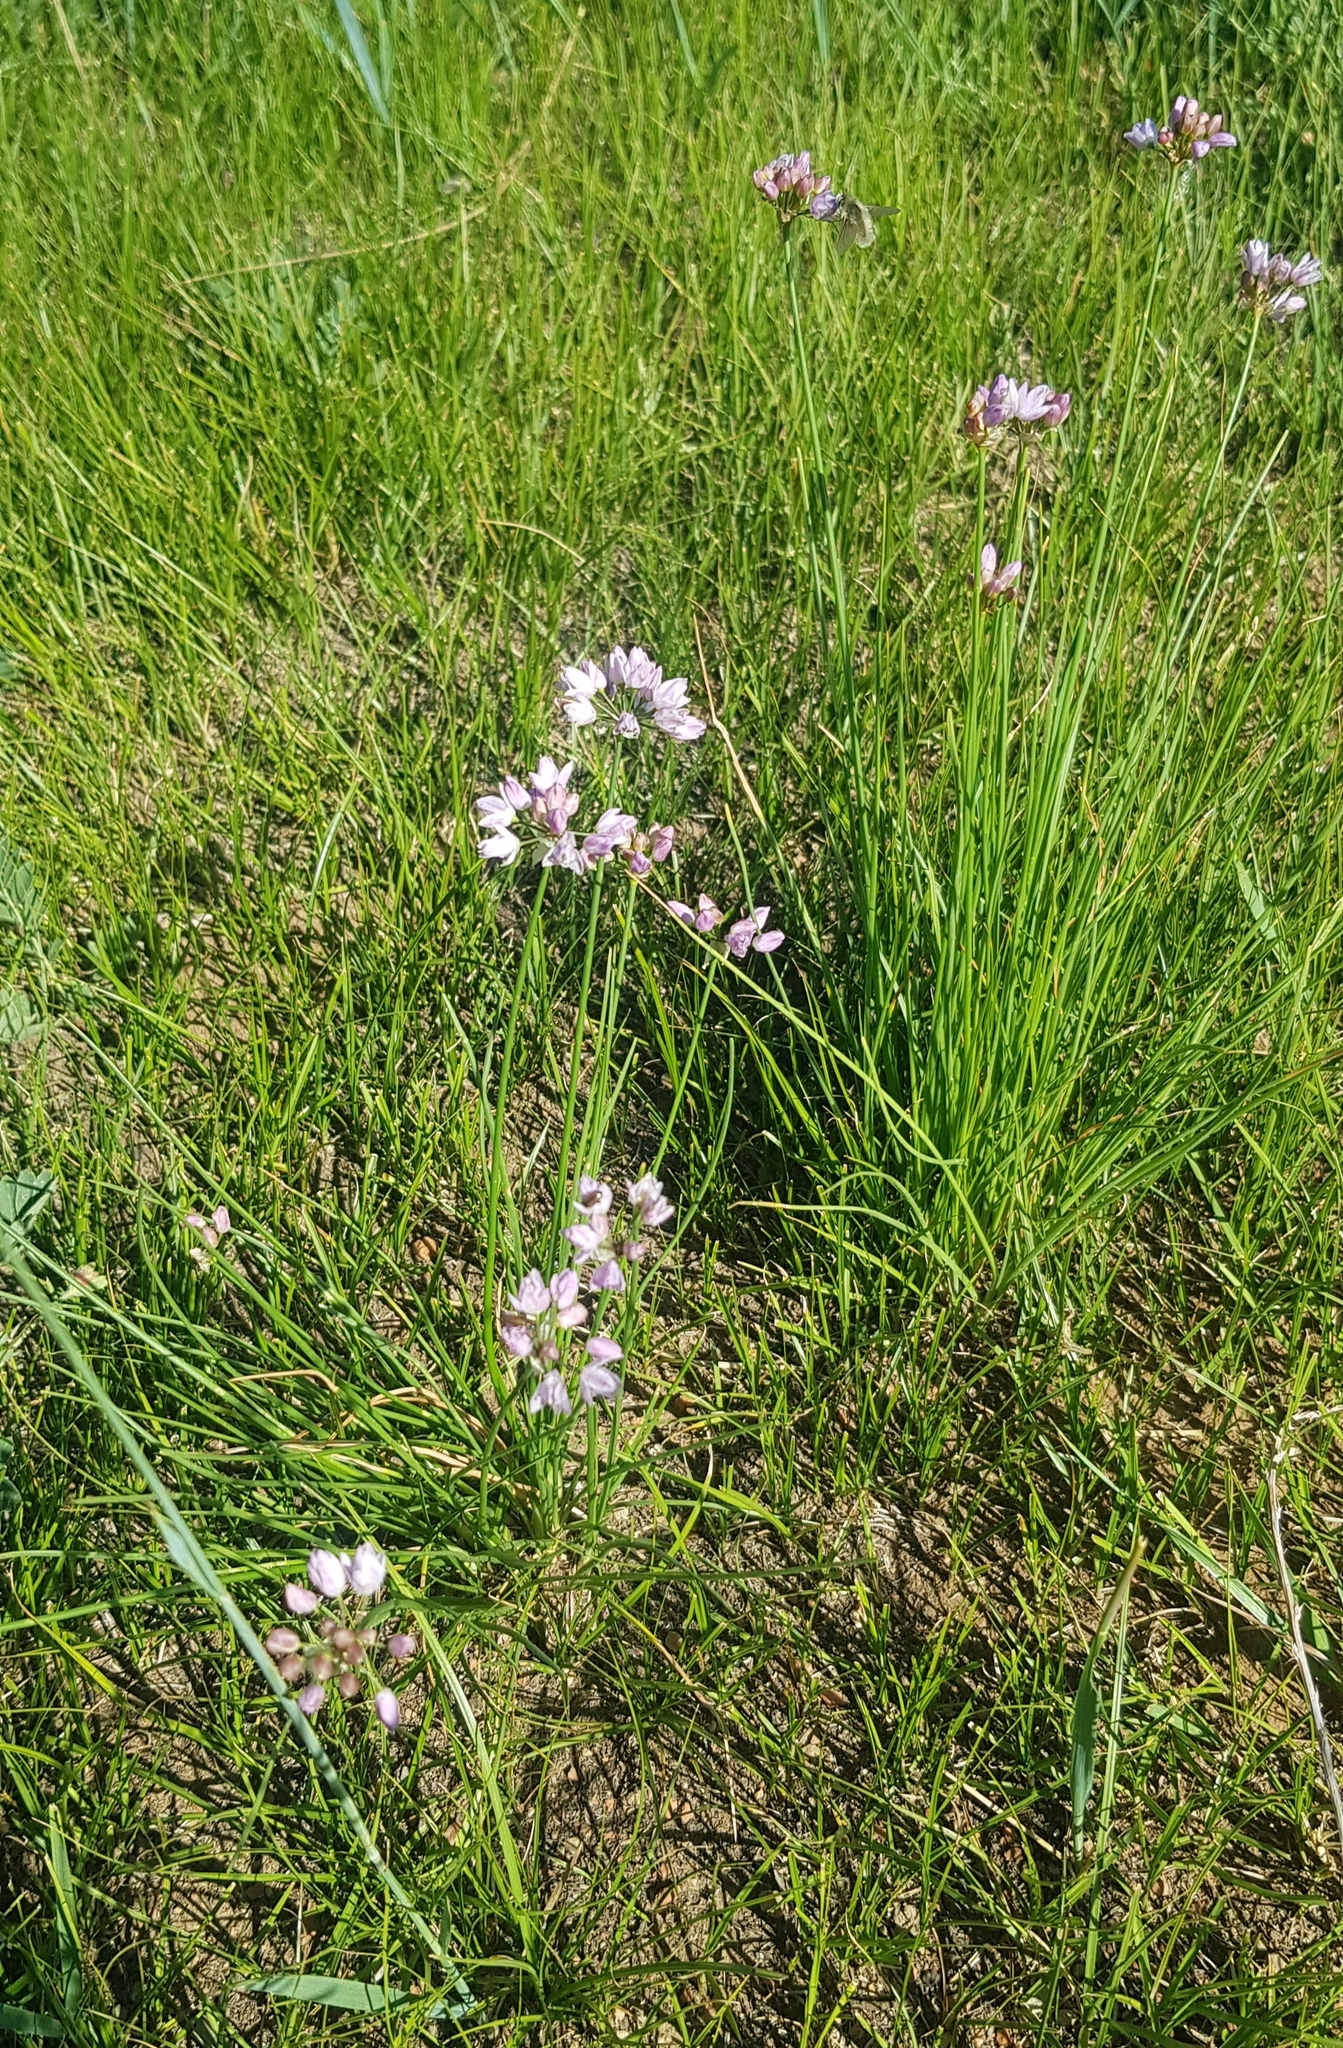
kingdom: Plantae
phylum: Tracheophyta
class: Liliopsida
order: Asparagales
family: Amaryllidaceae
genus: Allium
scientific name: Allium anisopodium
